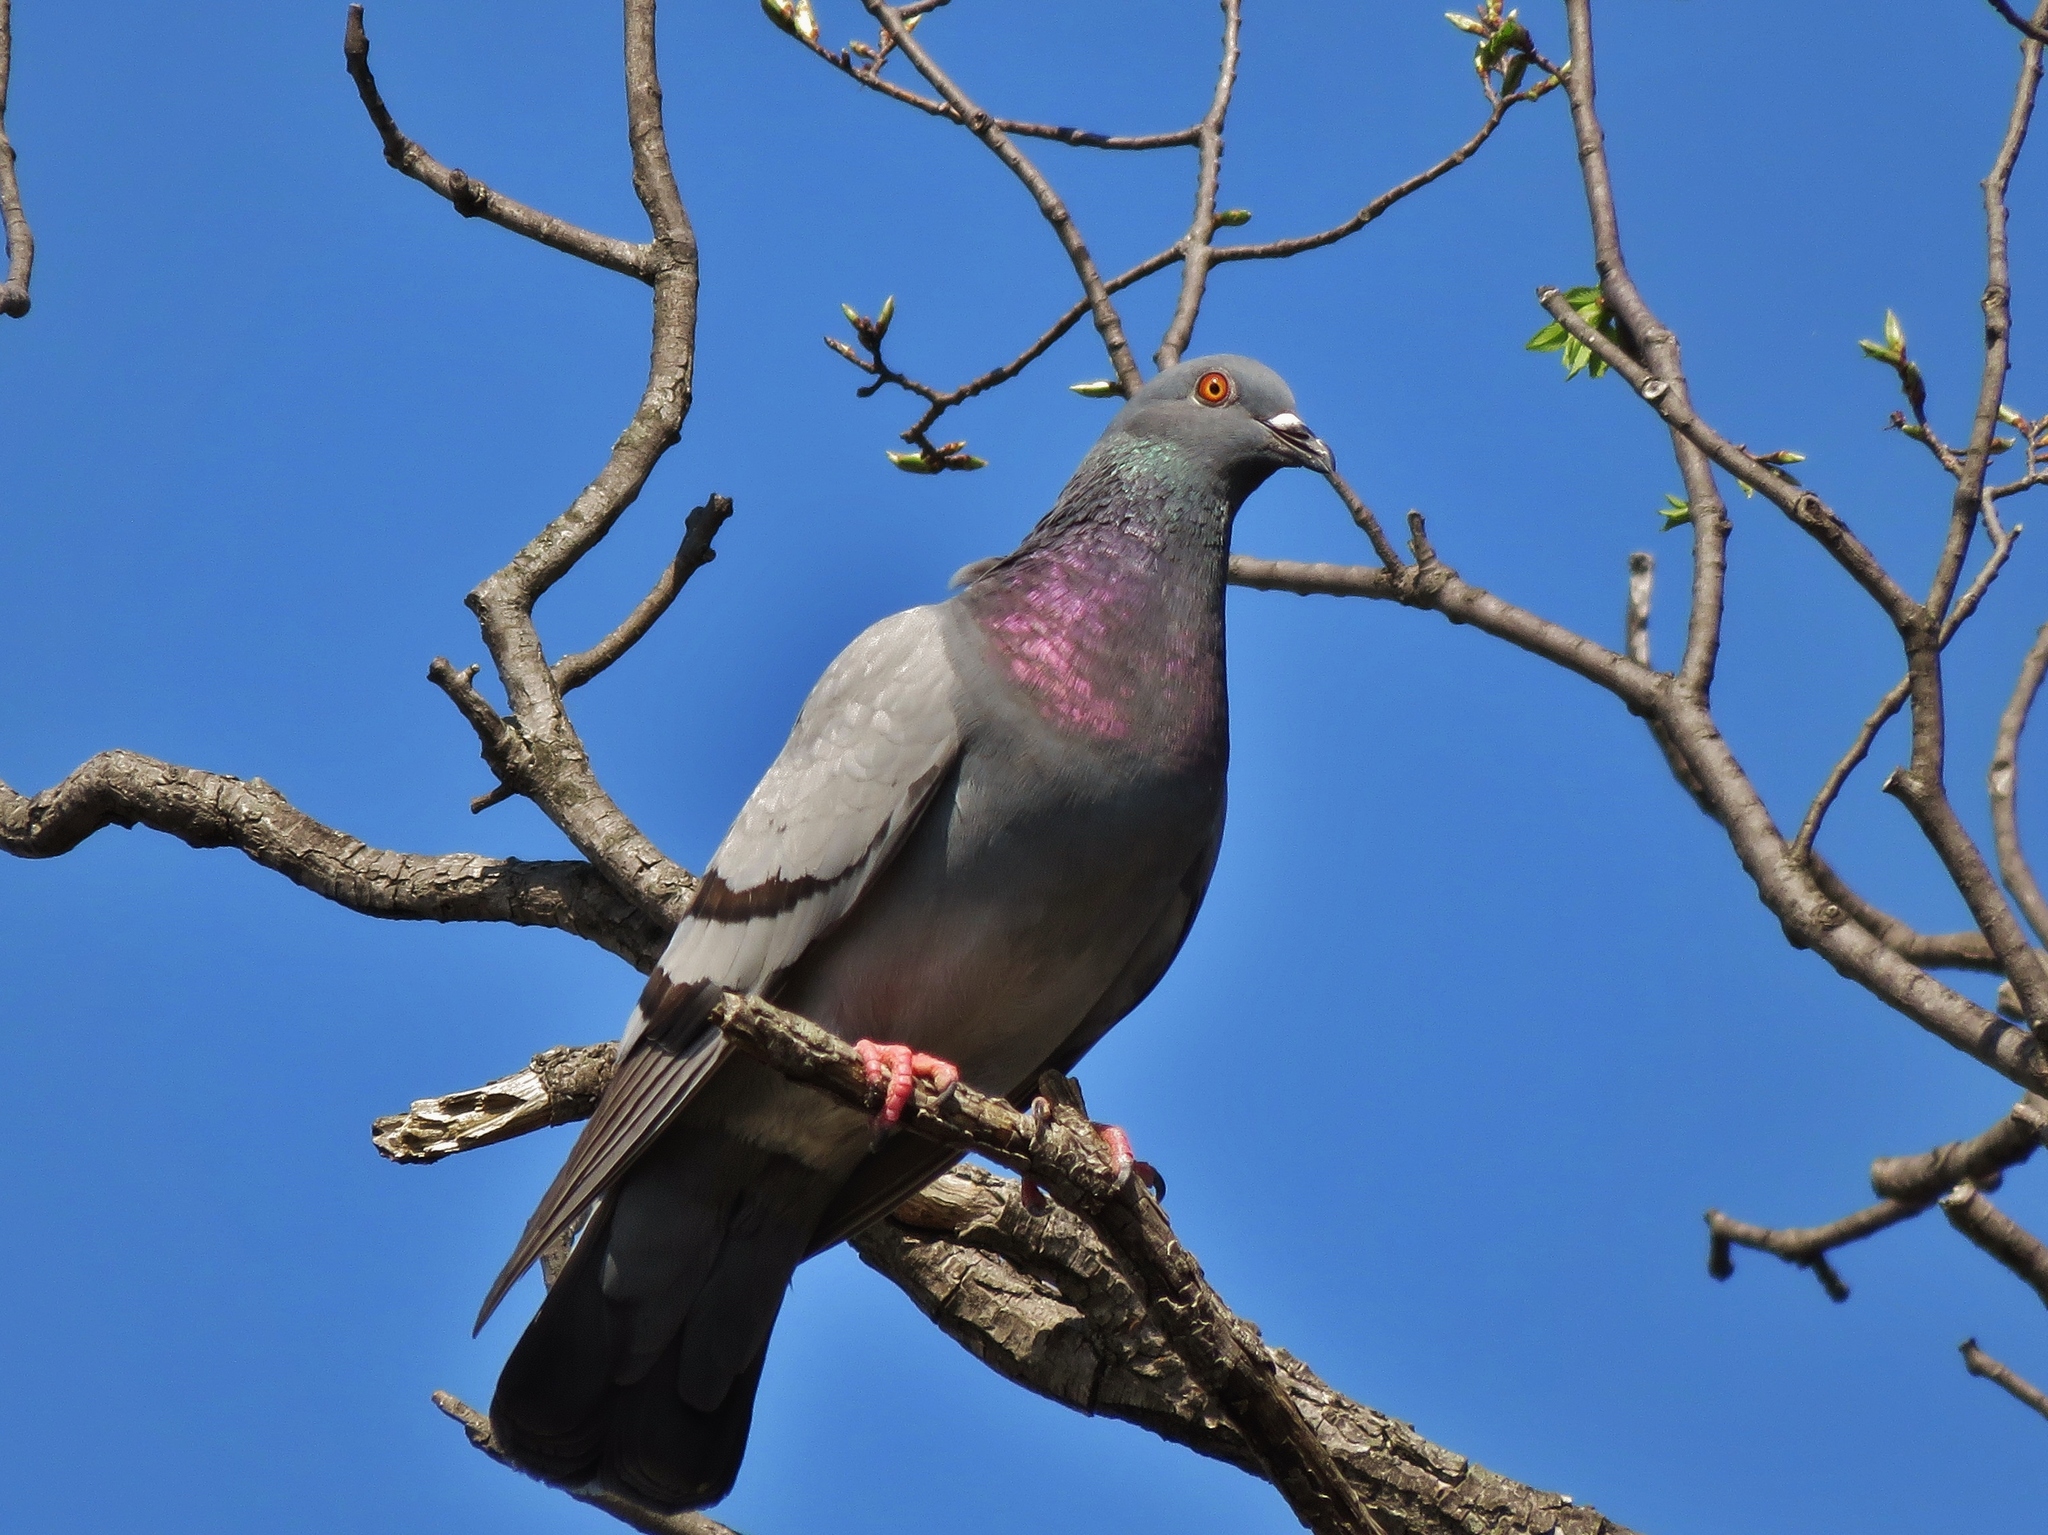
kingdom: Animalia
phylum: Chordata
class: Aves
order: Columbiformes
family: Columbidae
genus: Columba
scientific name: Columba livia
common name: Rock pigeon
